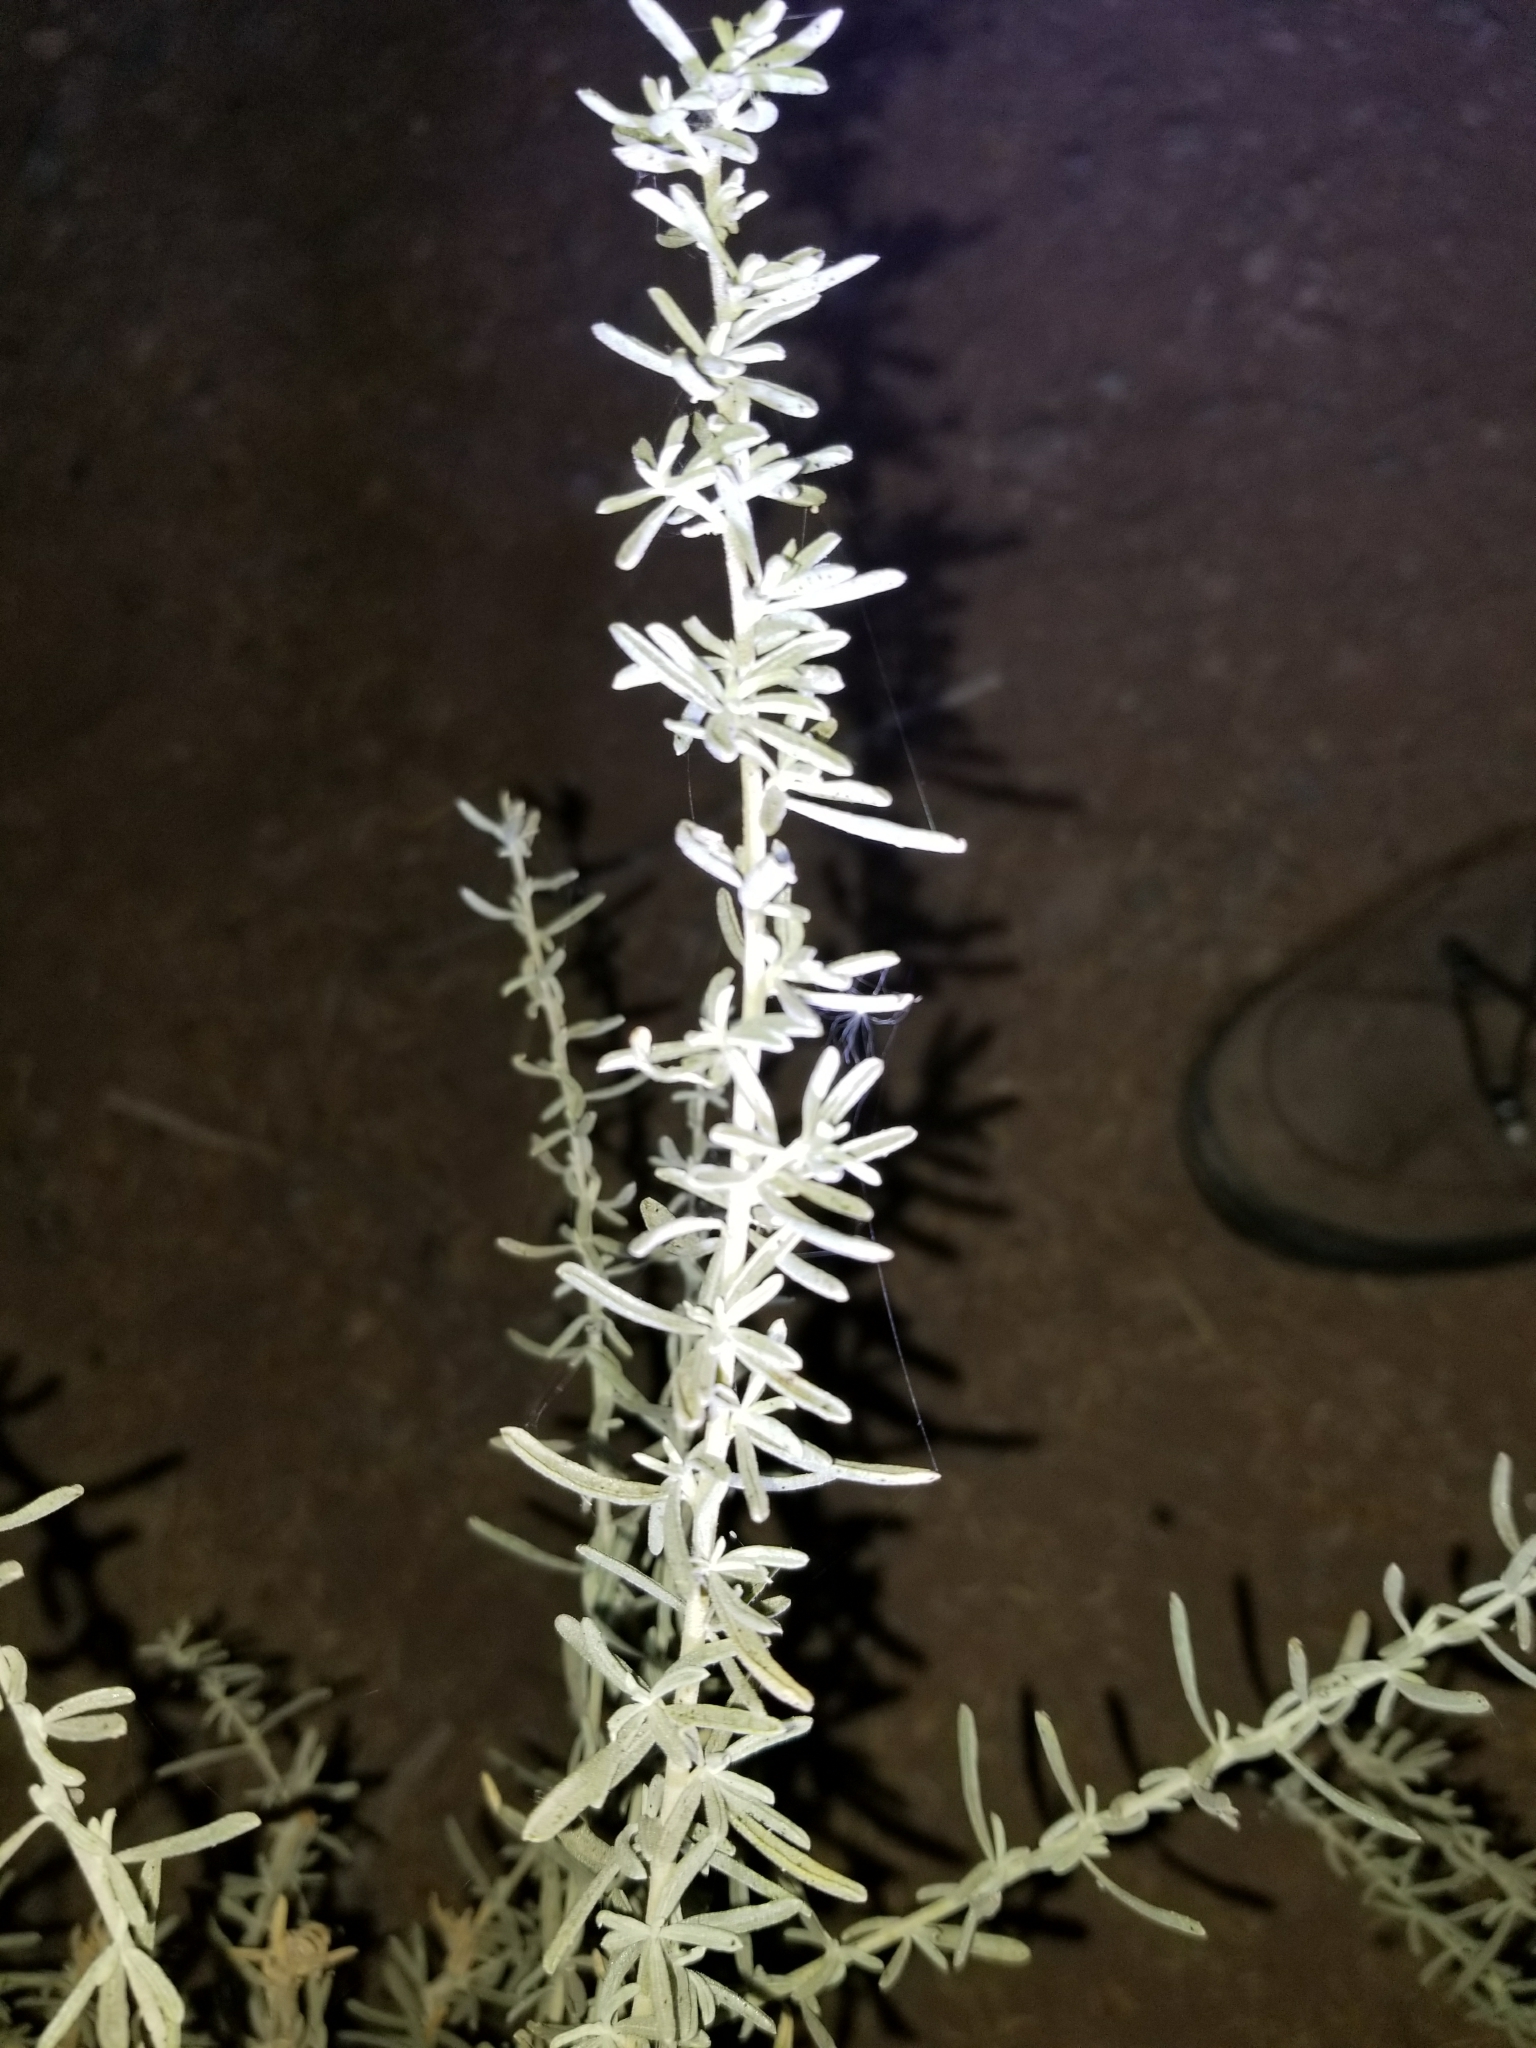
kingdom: Plantae
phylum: Tracheophyta
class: Magnoliopsida
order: Caryophyllales
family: Amaranthaceae
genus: Atriplex
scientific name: Atriplex canescens
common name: Four-wing saltbush
